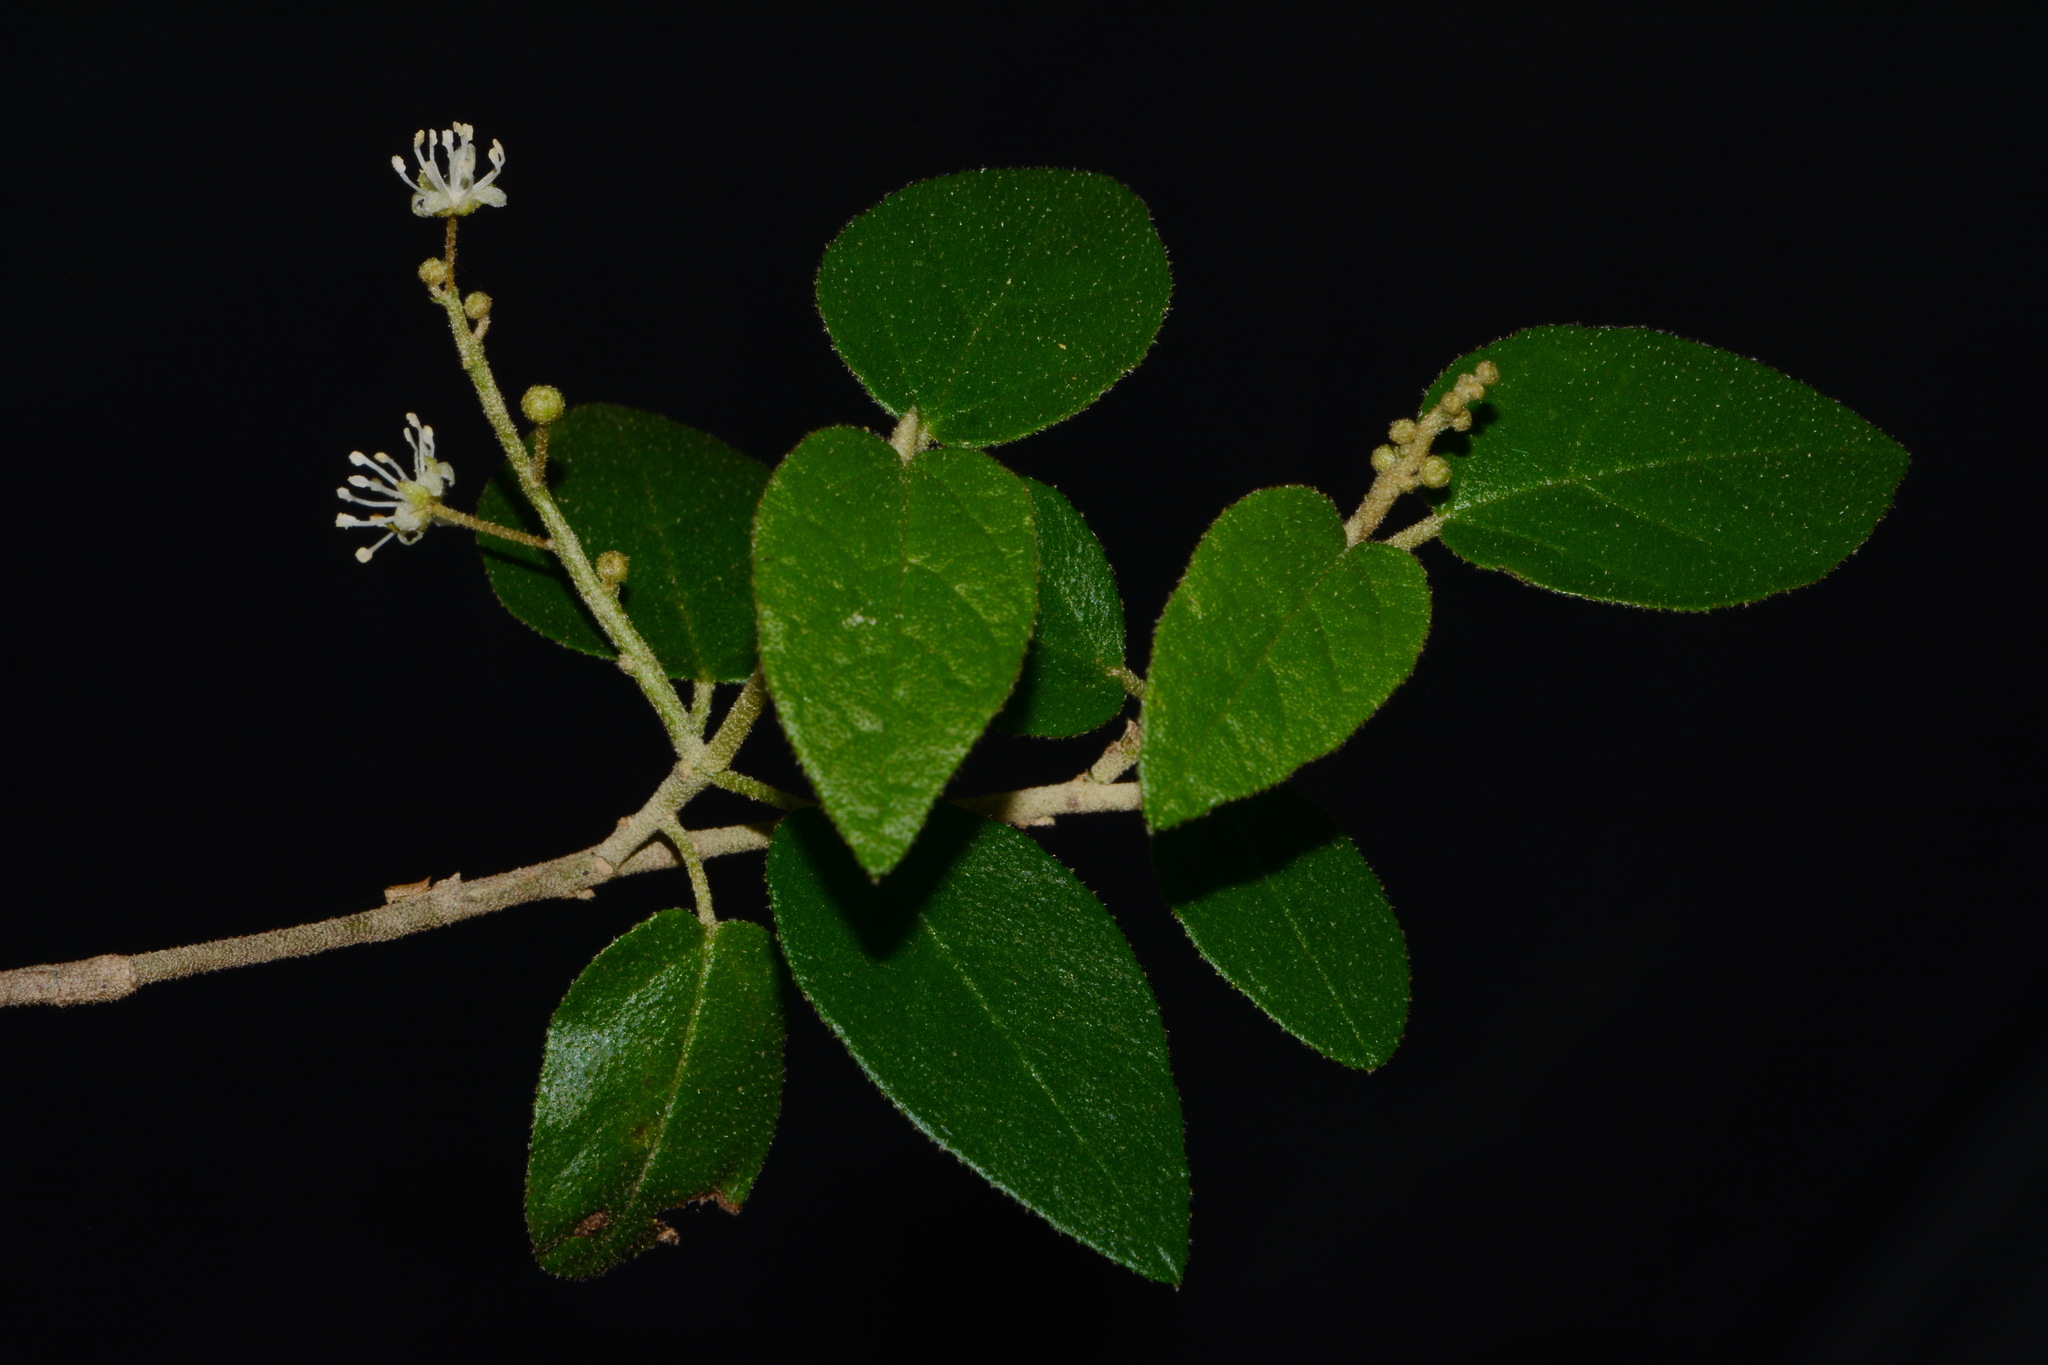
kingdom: Plantae
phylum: Tracheophyta
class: Magnoliopsida
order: Malpighiales
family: Euphorbiaceae
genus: Croton
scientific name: Croton fruticulosus
